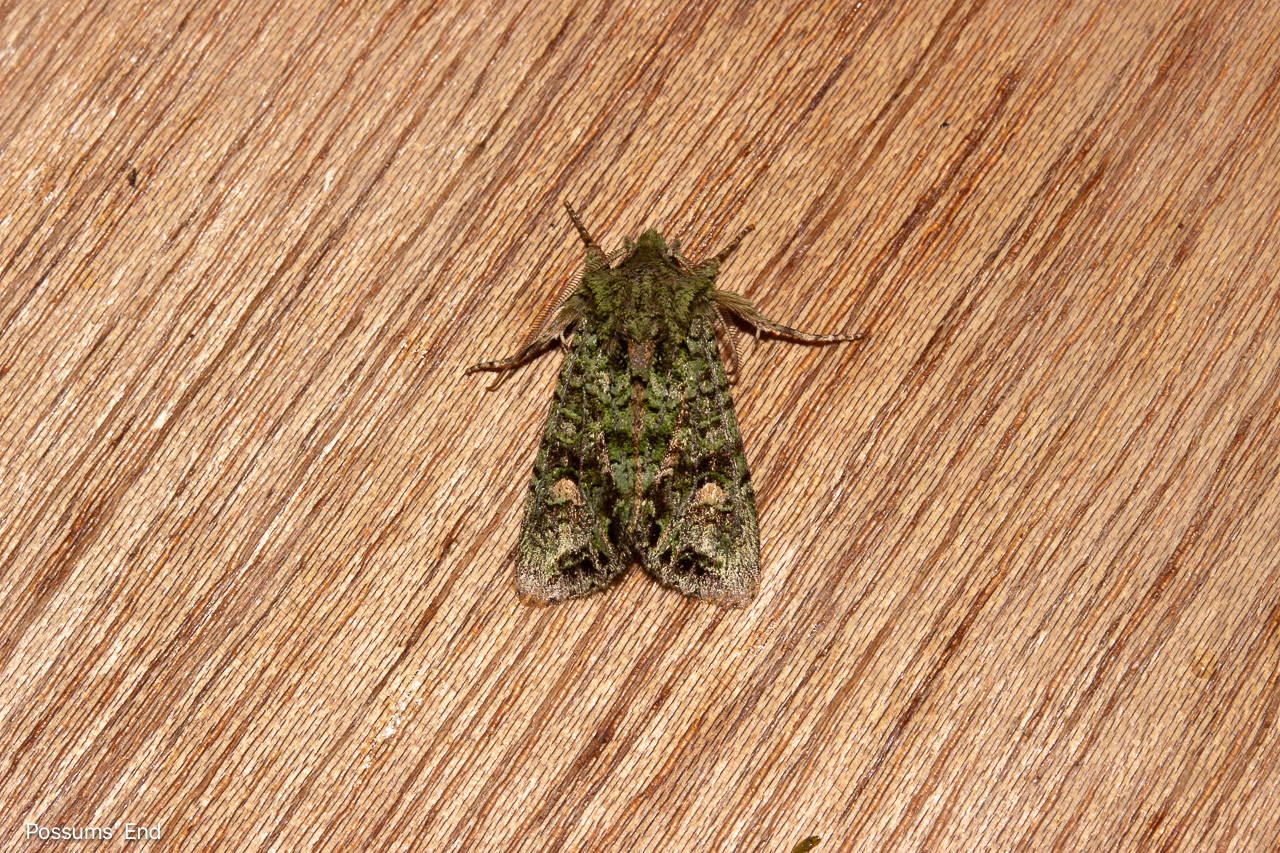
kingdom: Animalia
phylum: Arthropoda
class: Insecta
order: Lepidoptera
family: Noctuidae
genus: Ichneutica
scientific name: Ichneutica
